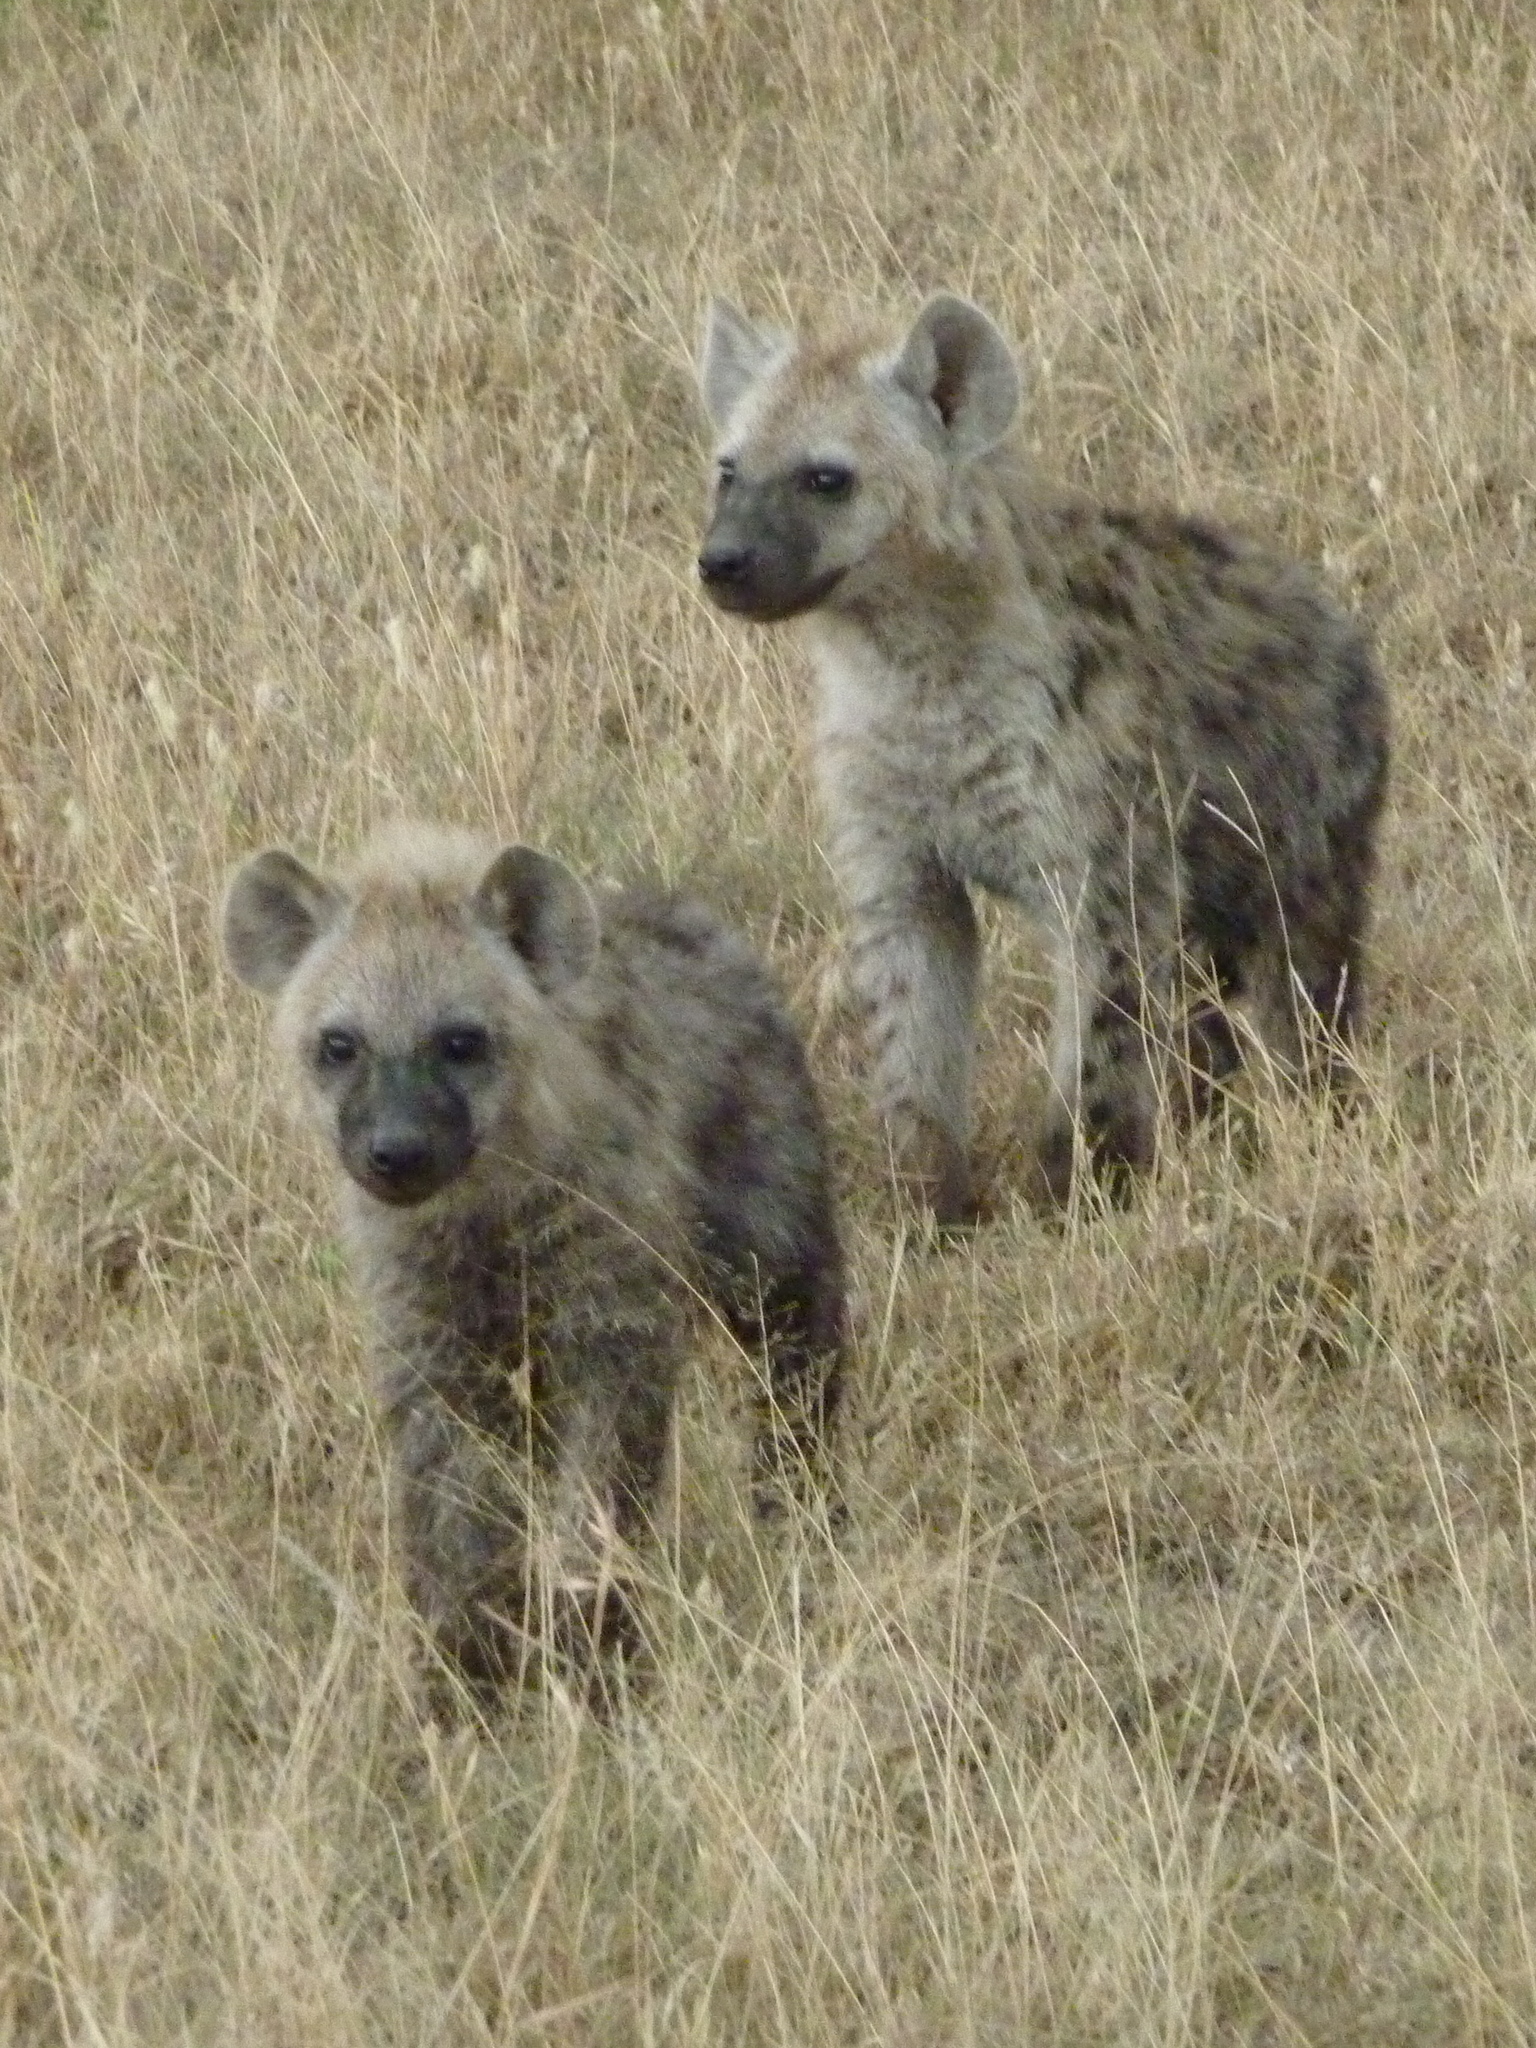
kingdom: Animalia
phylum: Chordata
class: Mammalia
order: Carnivora
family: Hyaenidae
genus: Crocuta
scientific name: Crocuta crocuta
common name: Spotted hyaena
